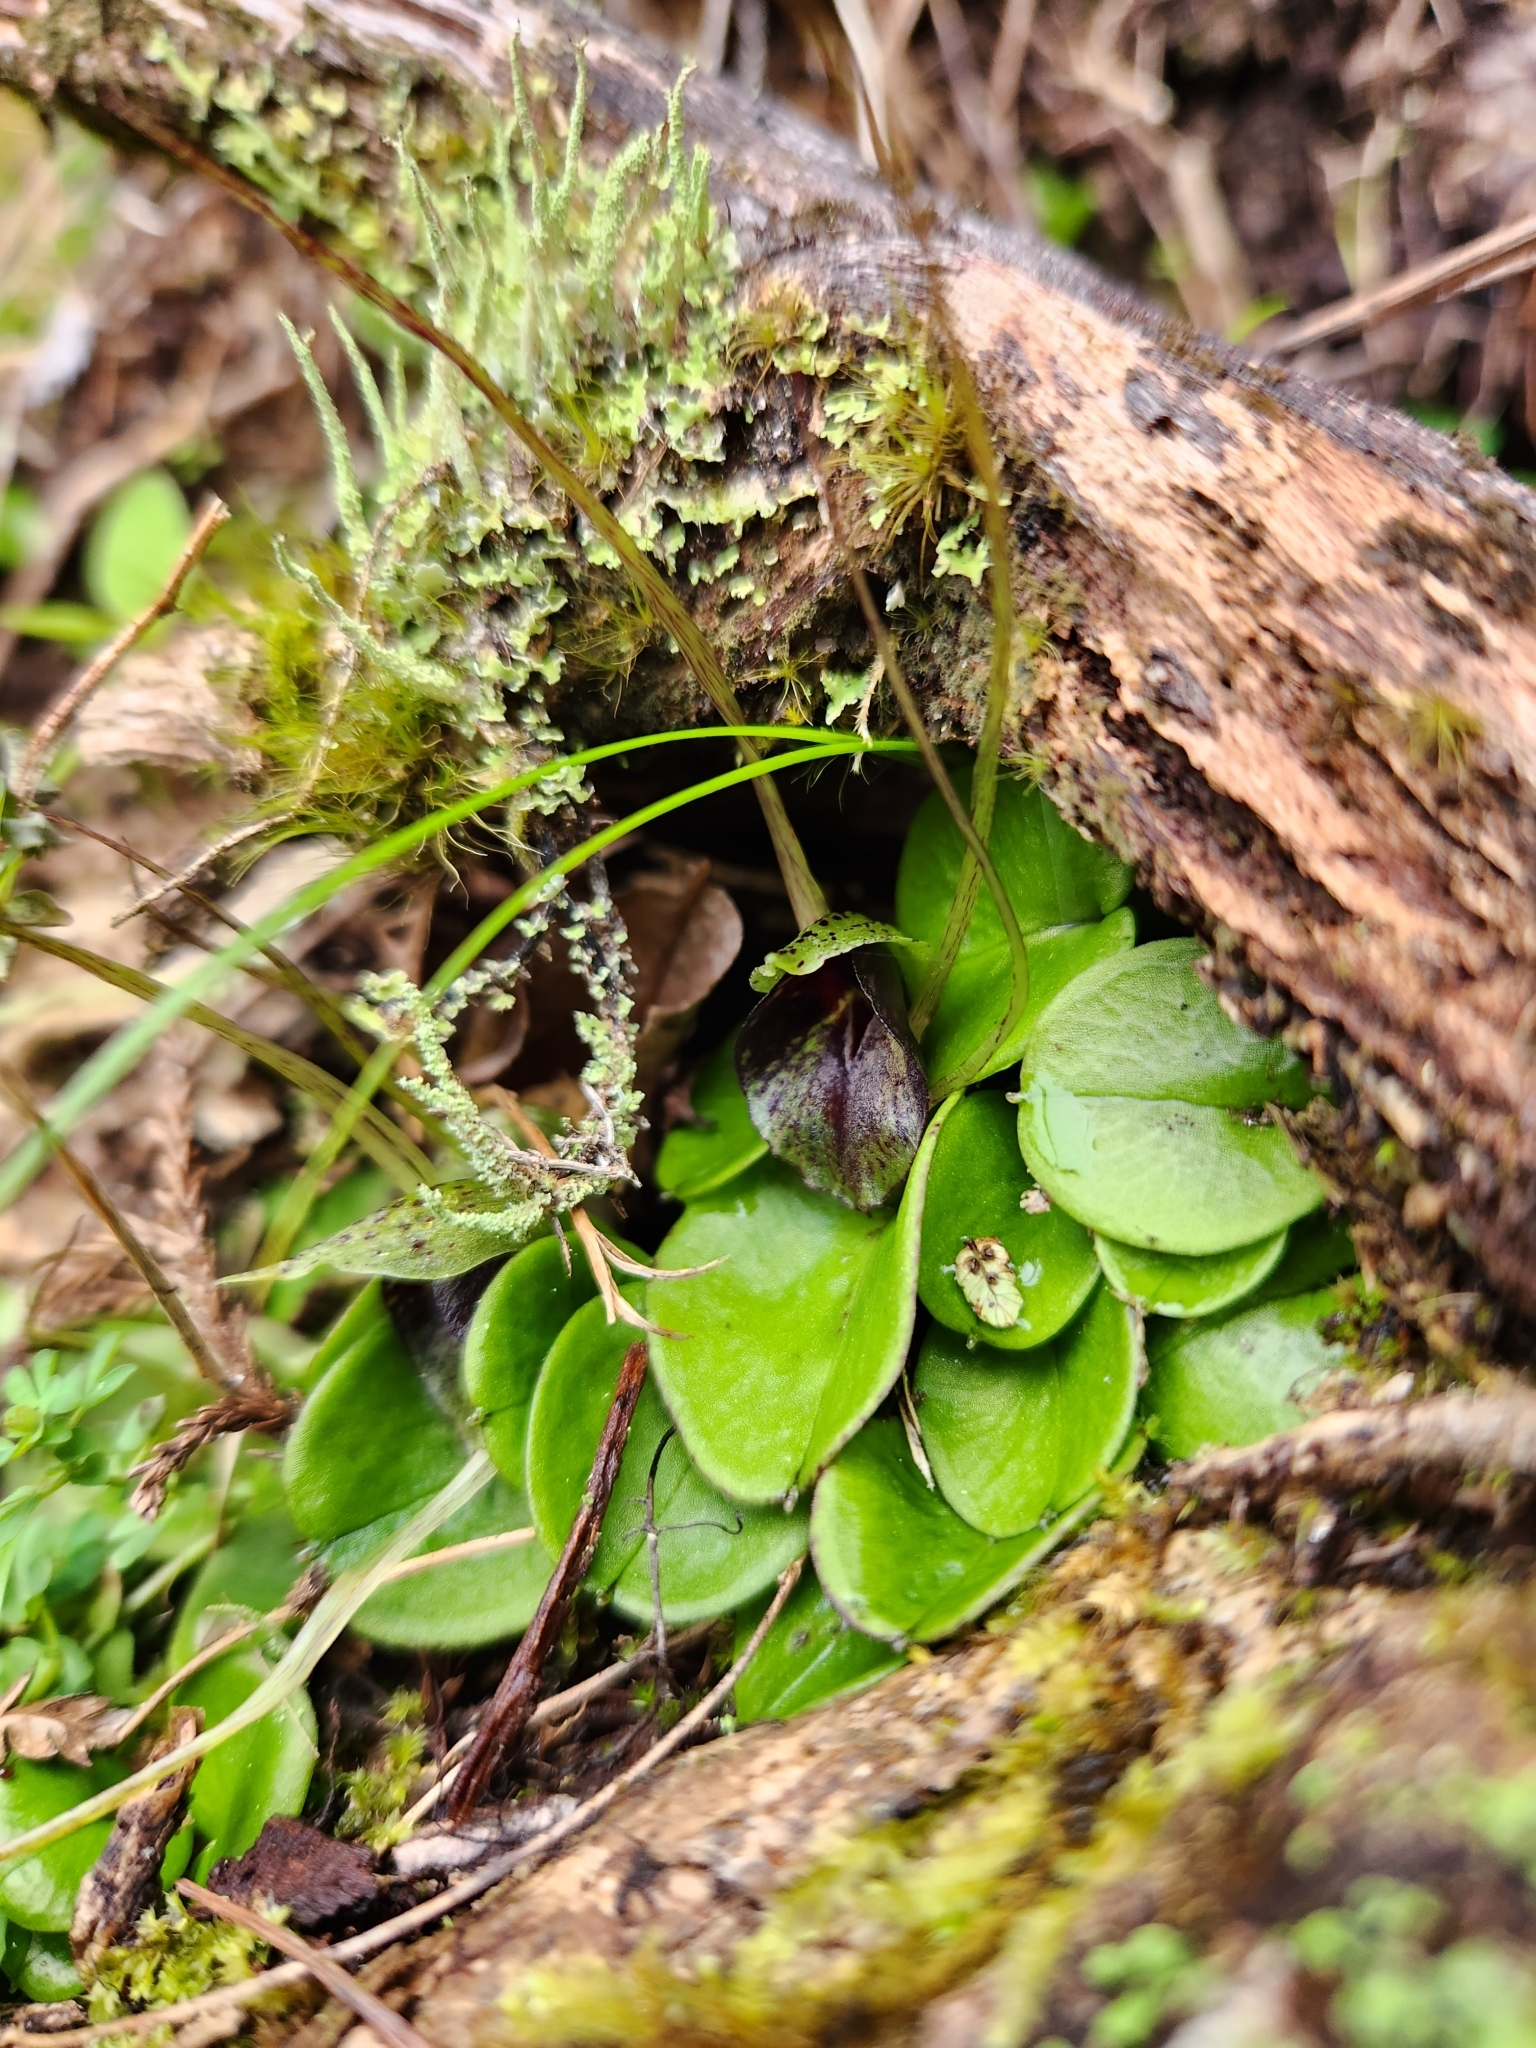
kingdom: Plantae
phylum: Tracheophyta
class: Liliopsida
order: Asparagales
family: Orchidaceae
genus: Corybas
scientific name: Corybas hatchii
